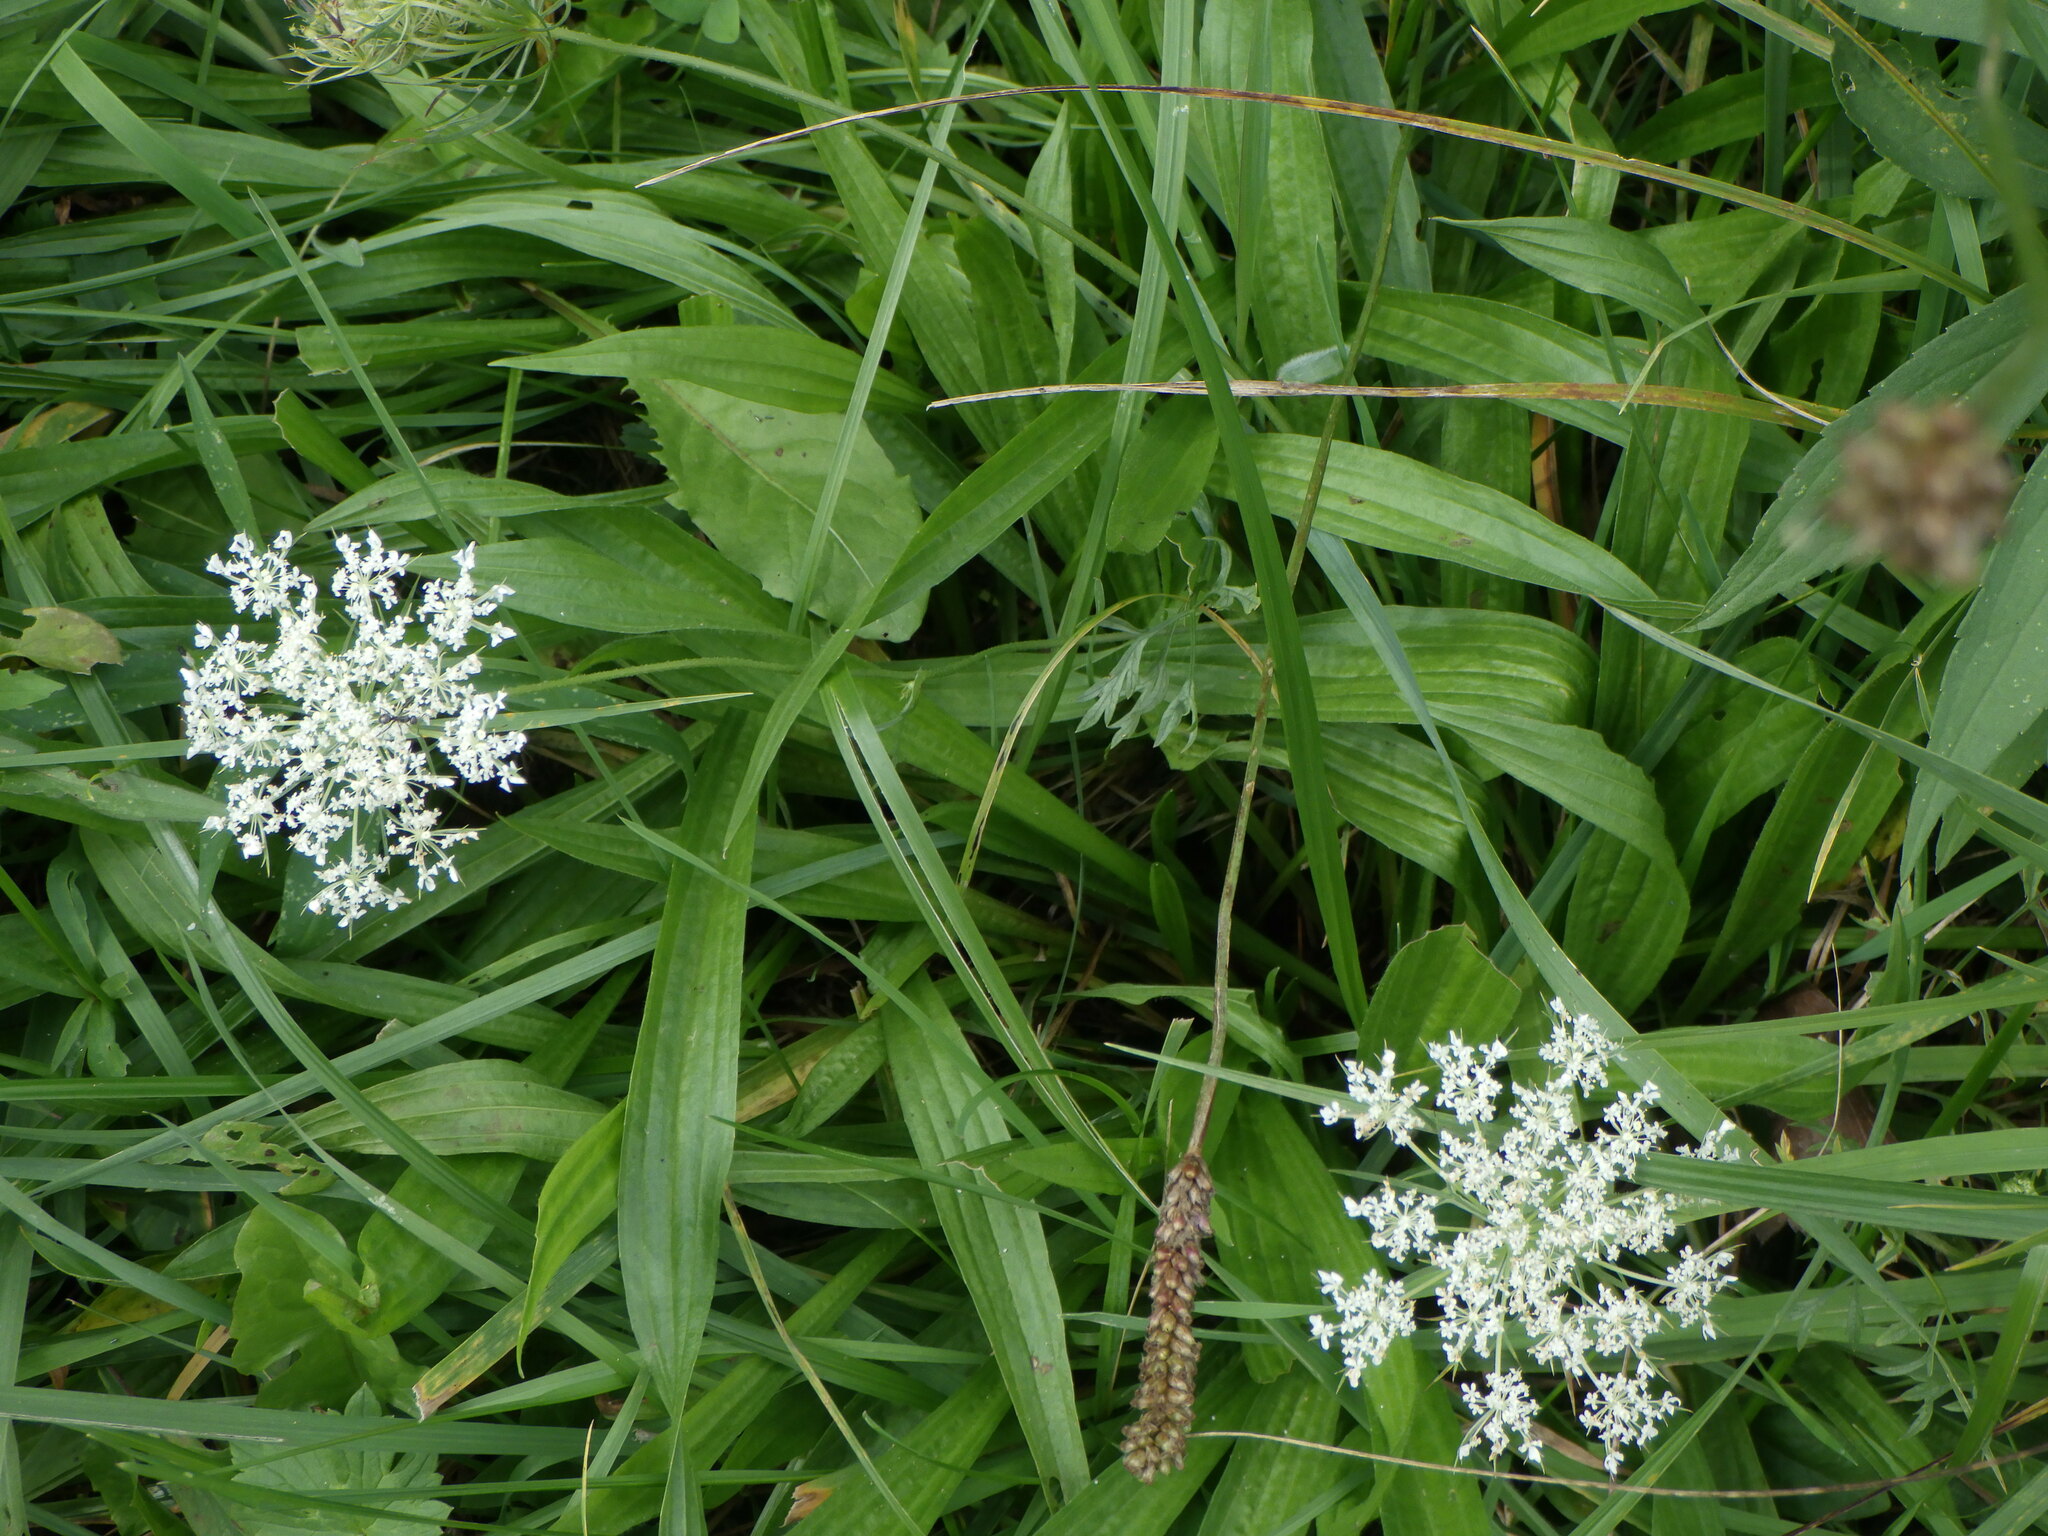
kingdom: Plantae
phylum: Tracheophyta
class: Magnoliopsida
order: Apiales
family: Apiaceae
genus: Daucus
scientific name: Daucus carota
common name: Wild carrot
